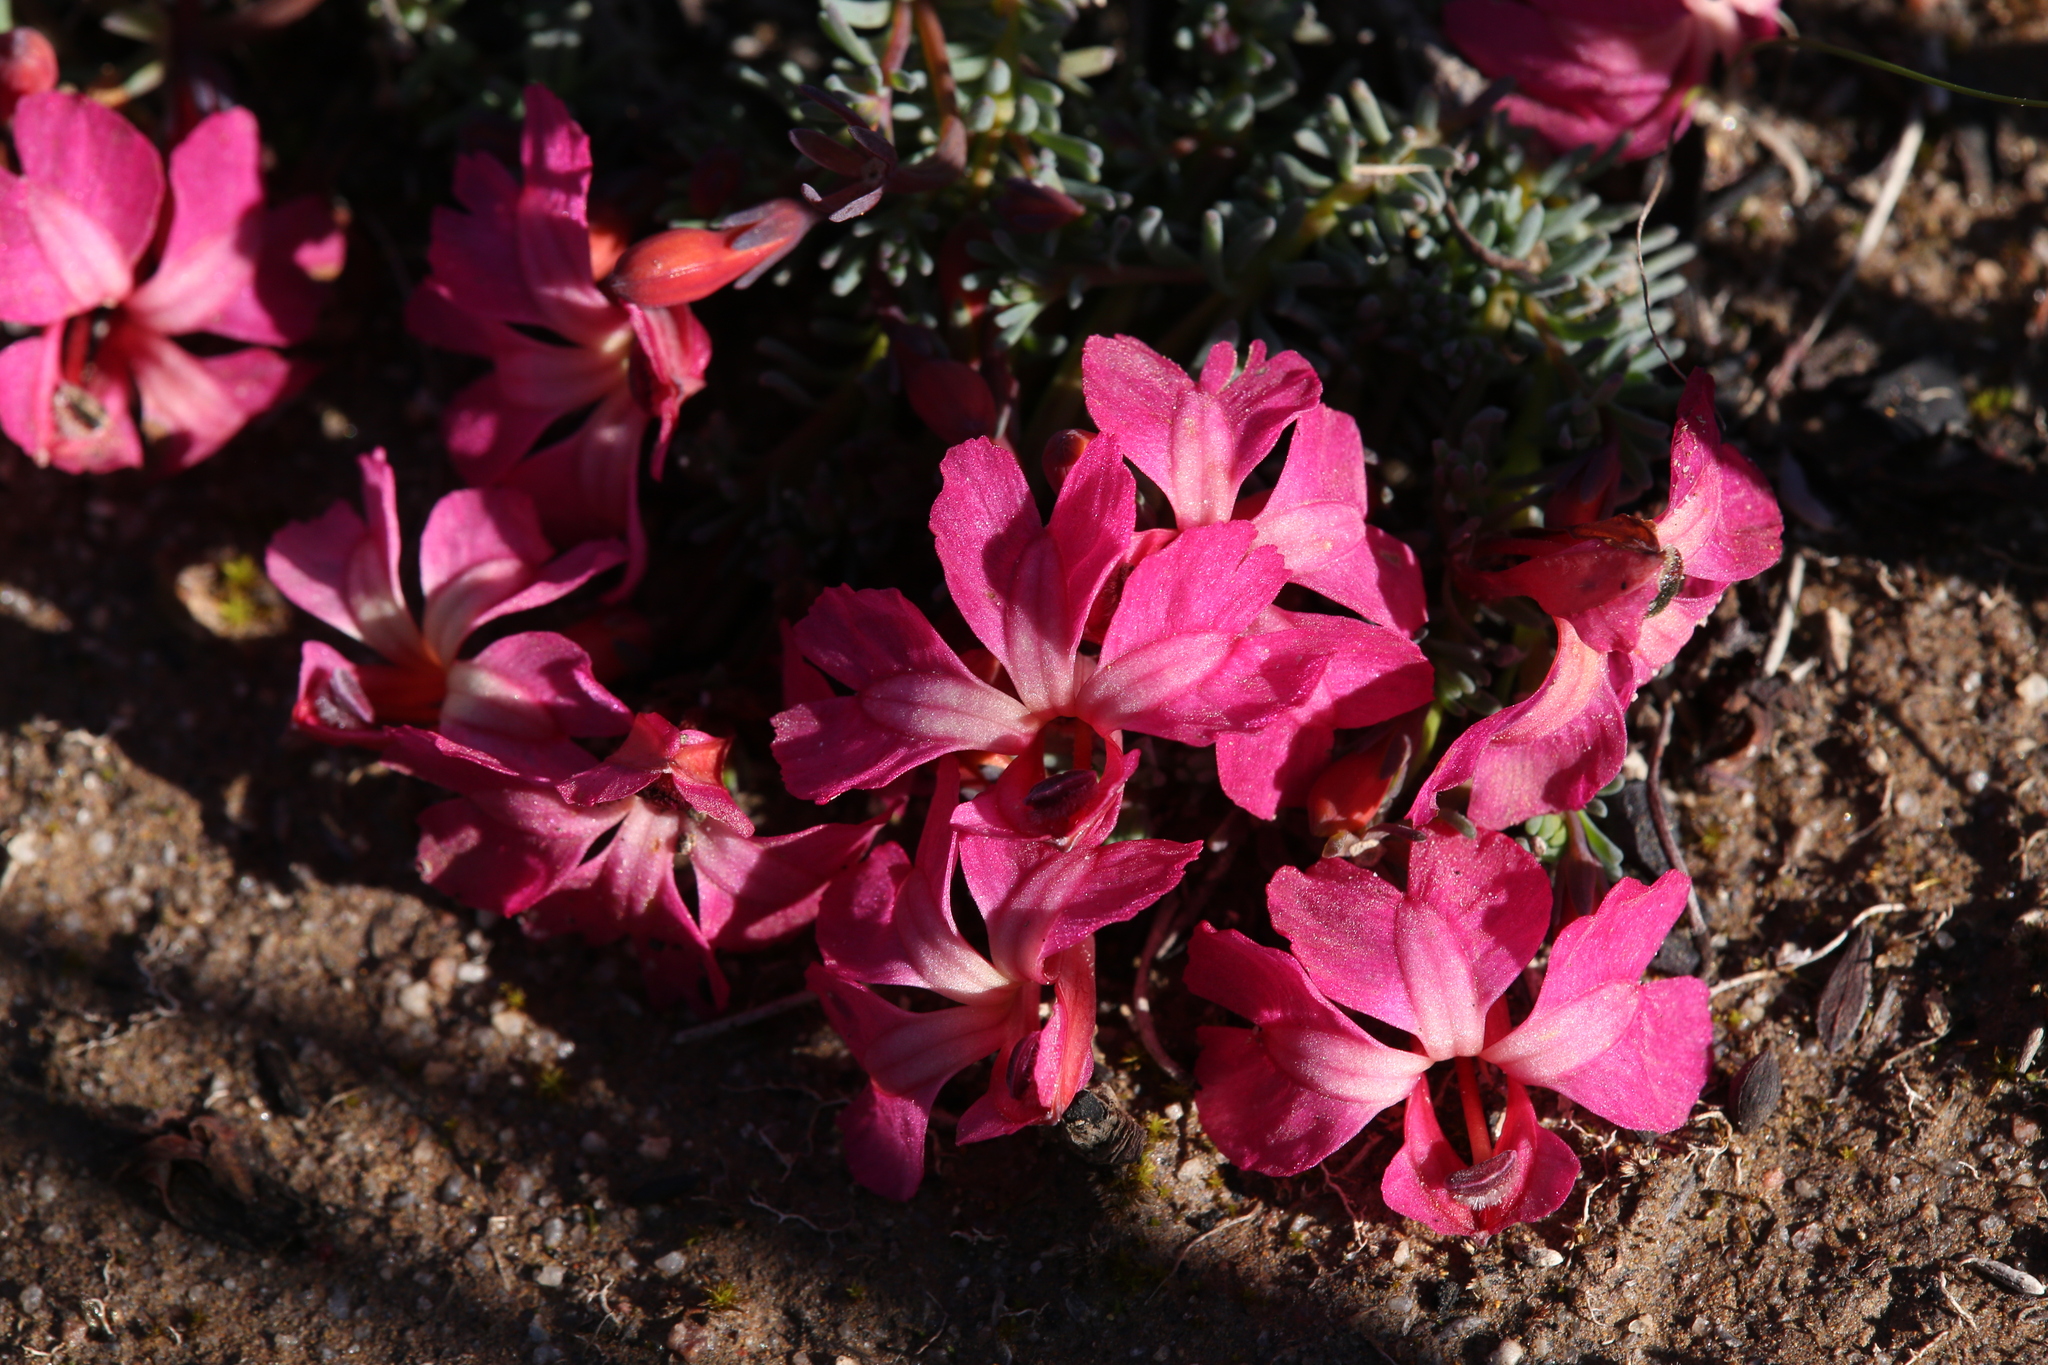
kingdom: Plantae
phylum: Tracheophyta
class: Magnoliopsida
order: Asterales
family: Goodeniaceae
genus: Lechenaultia
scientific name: Lechenaultia formosa
